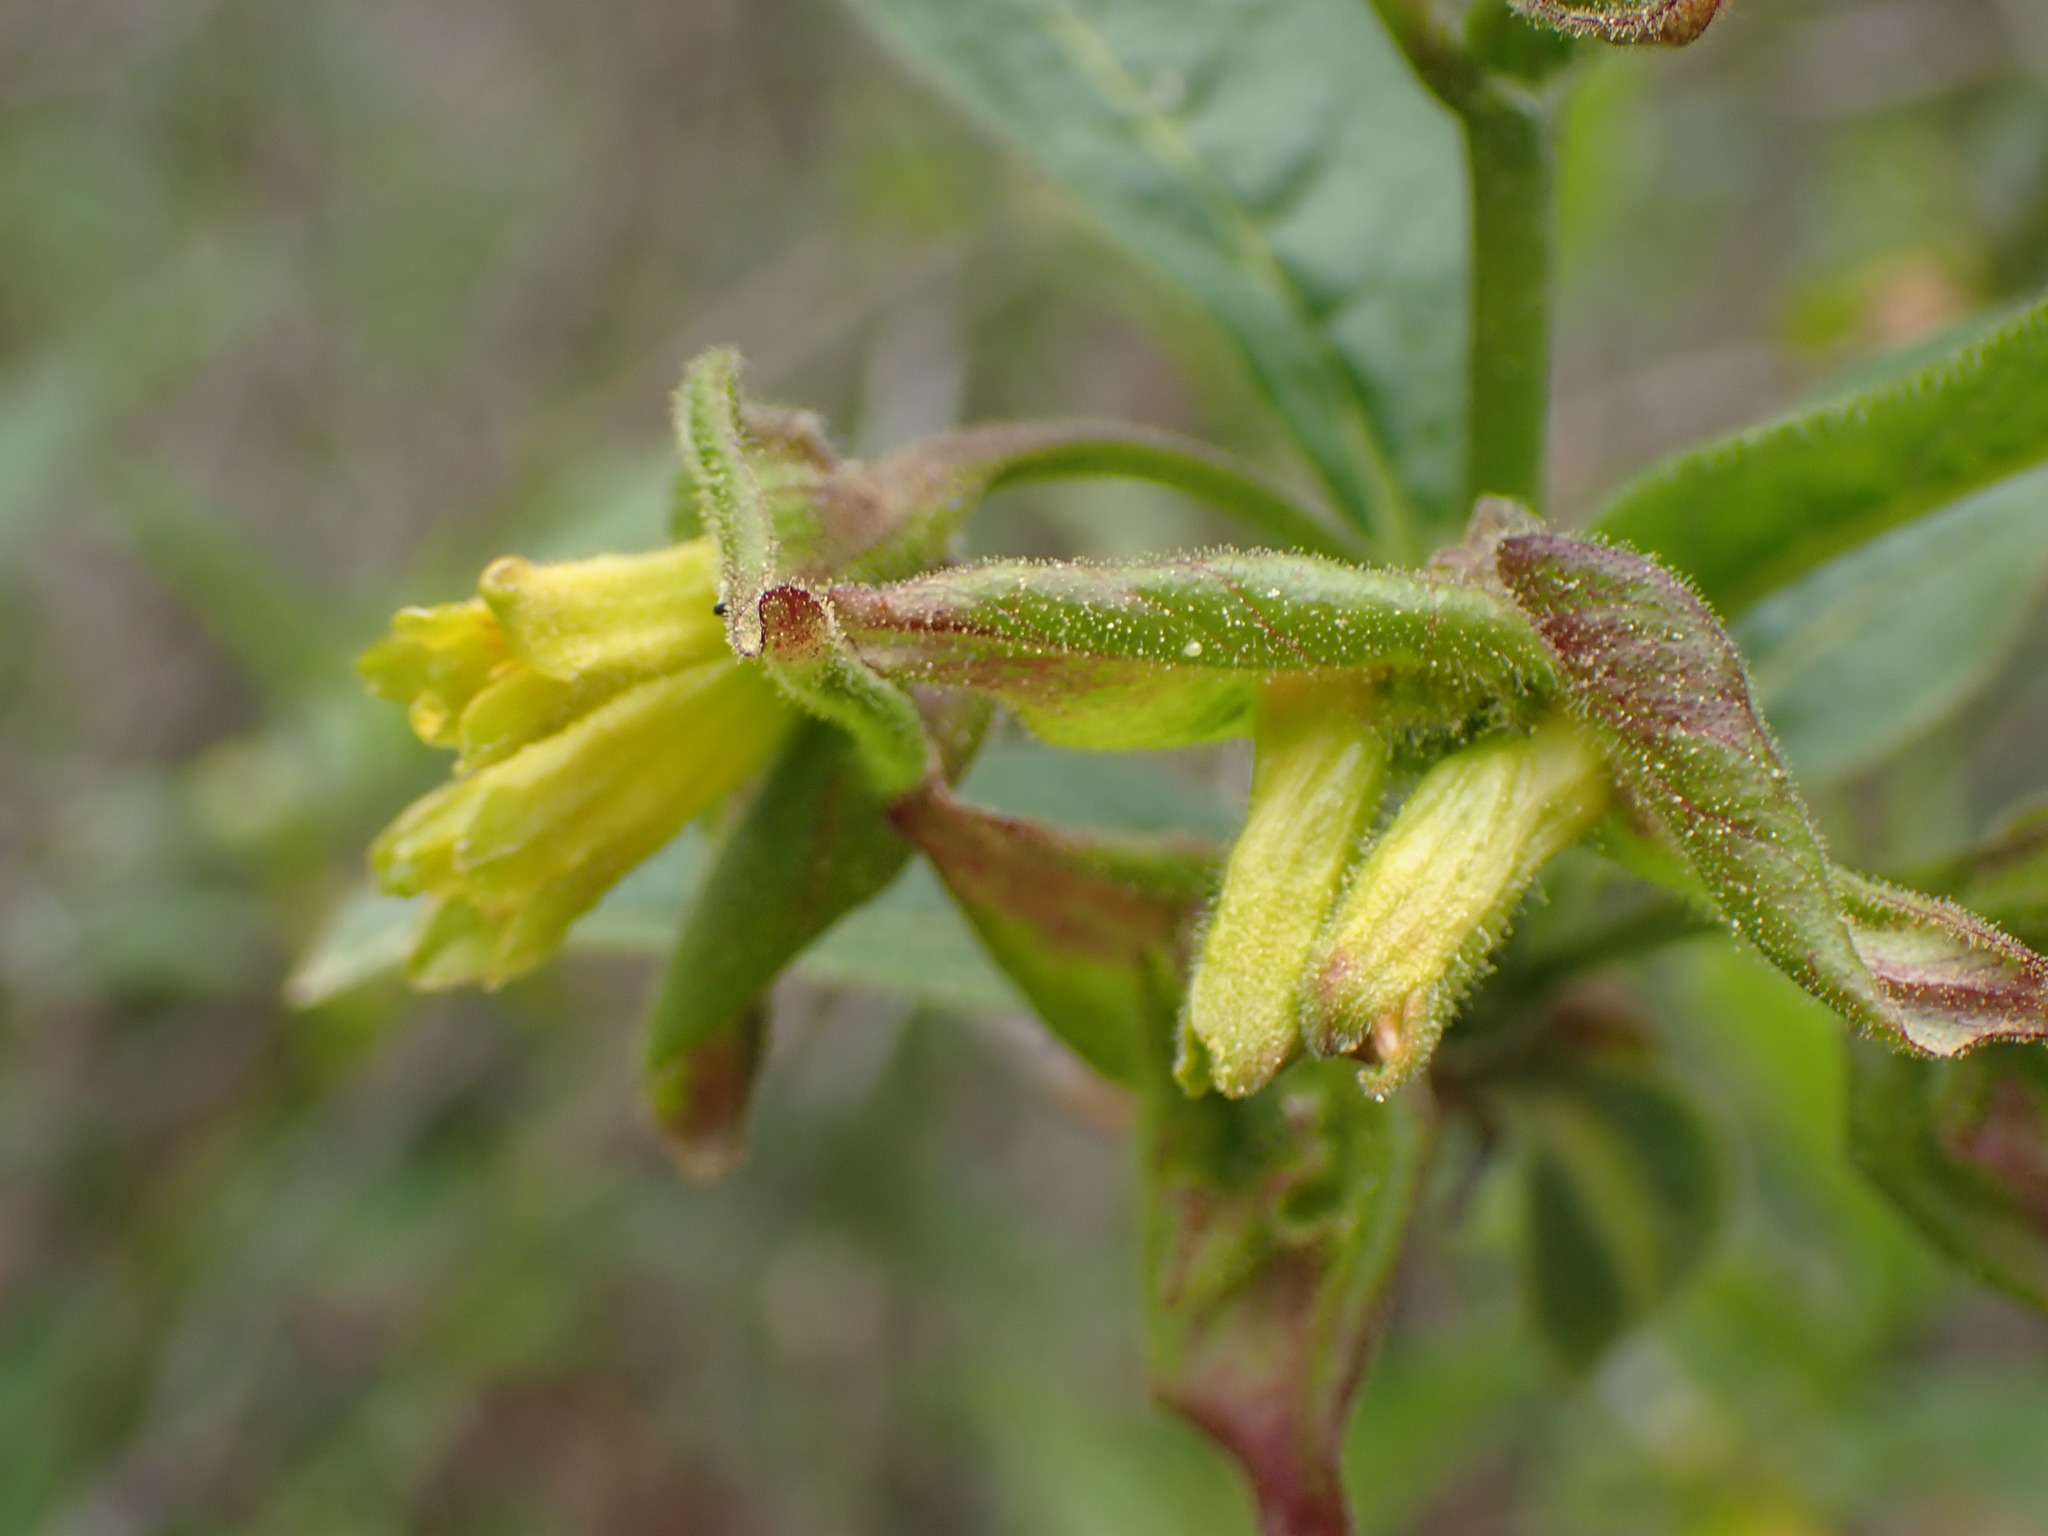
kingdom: Plantae
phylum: Tracheophyta
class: Magnoliopsida
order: Dipsacales
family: Caprifoliaceae
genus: Lonicera
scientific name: Lonicera involucrata
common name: Californian honeysuckle
